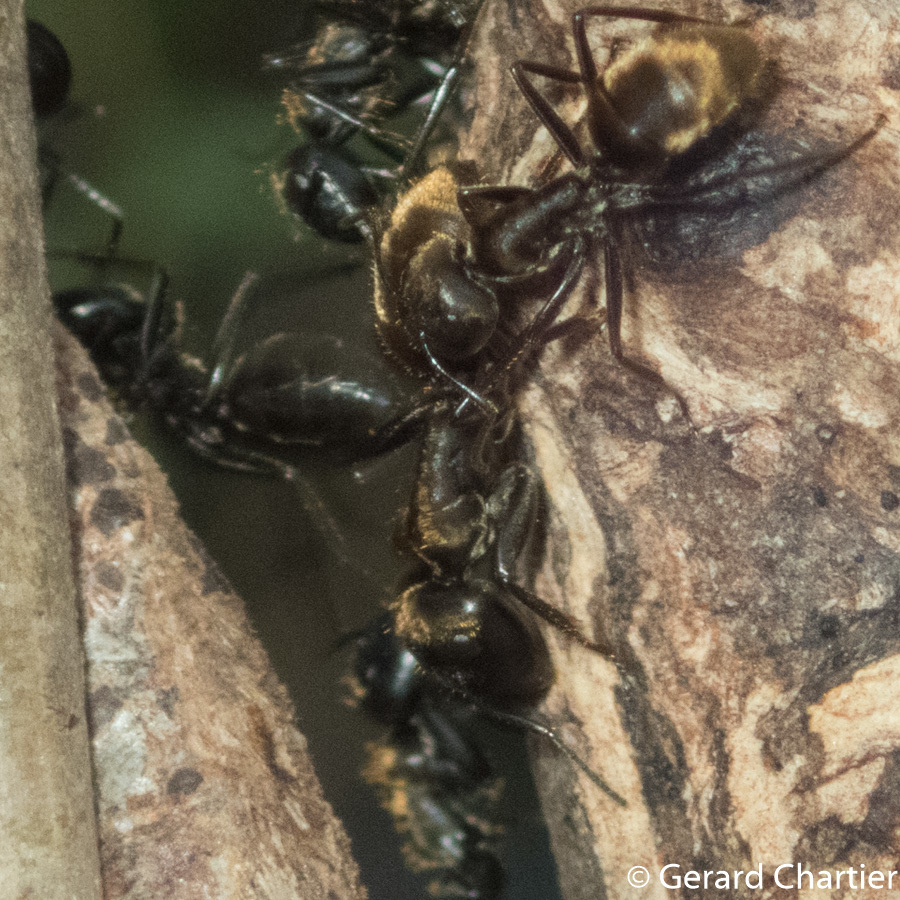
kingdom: Animalia
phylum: Arthropoda
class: Insecta
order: Hymenoptera
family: Formicidae
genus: Colobopsis
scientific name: Colobopsis
